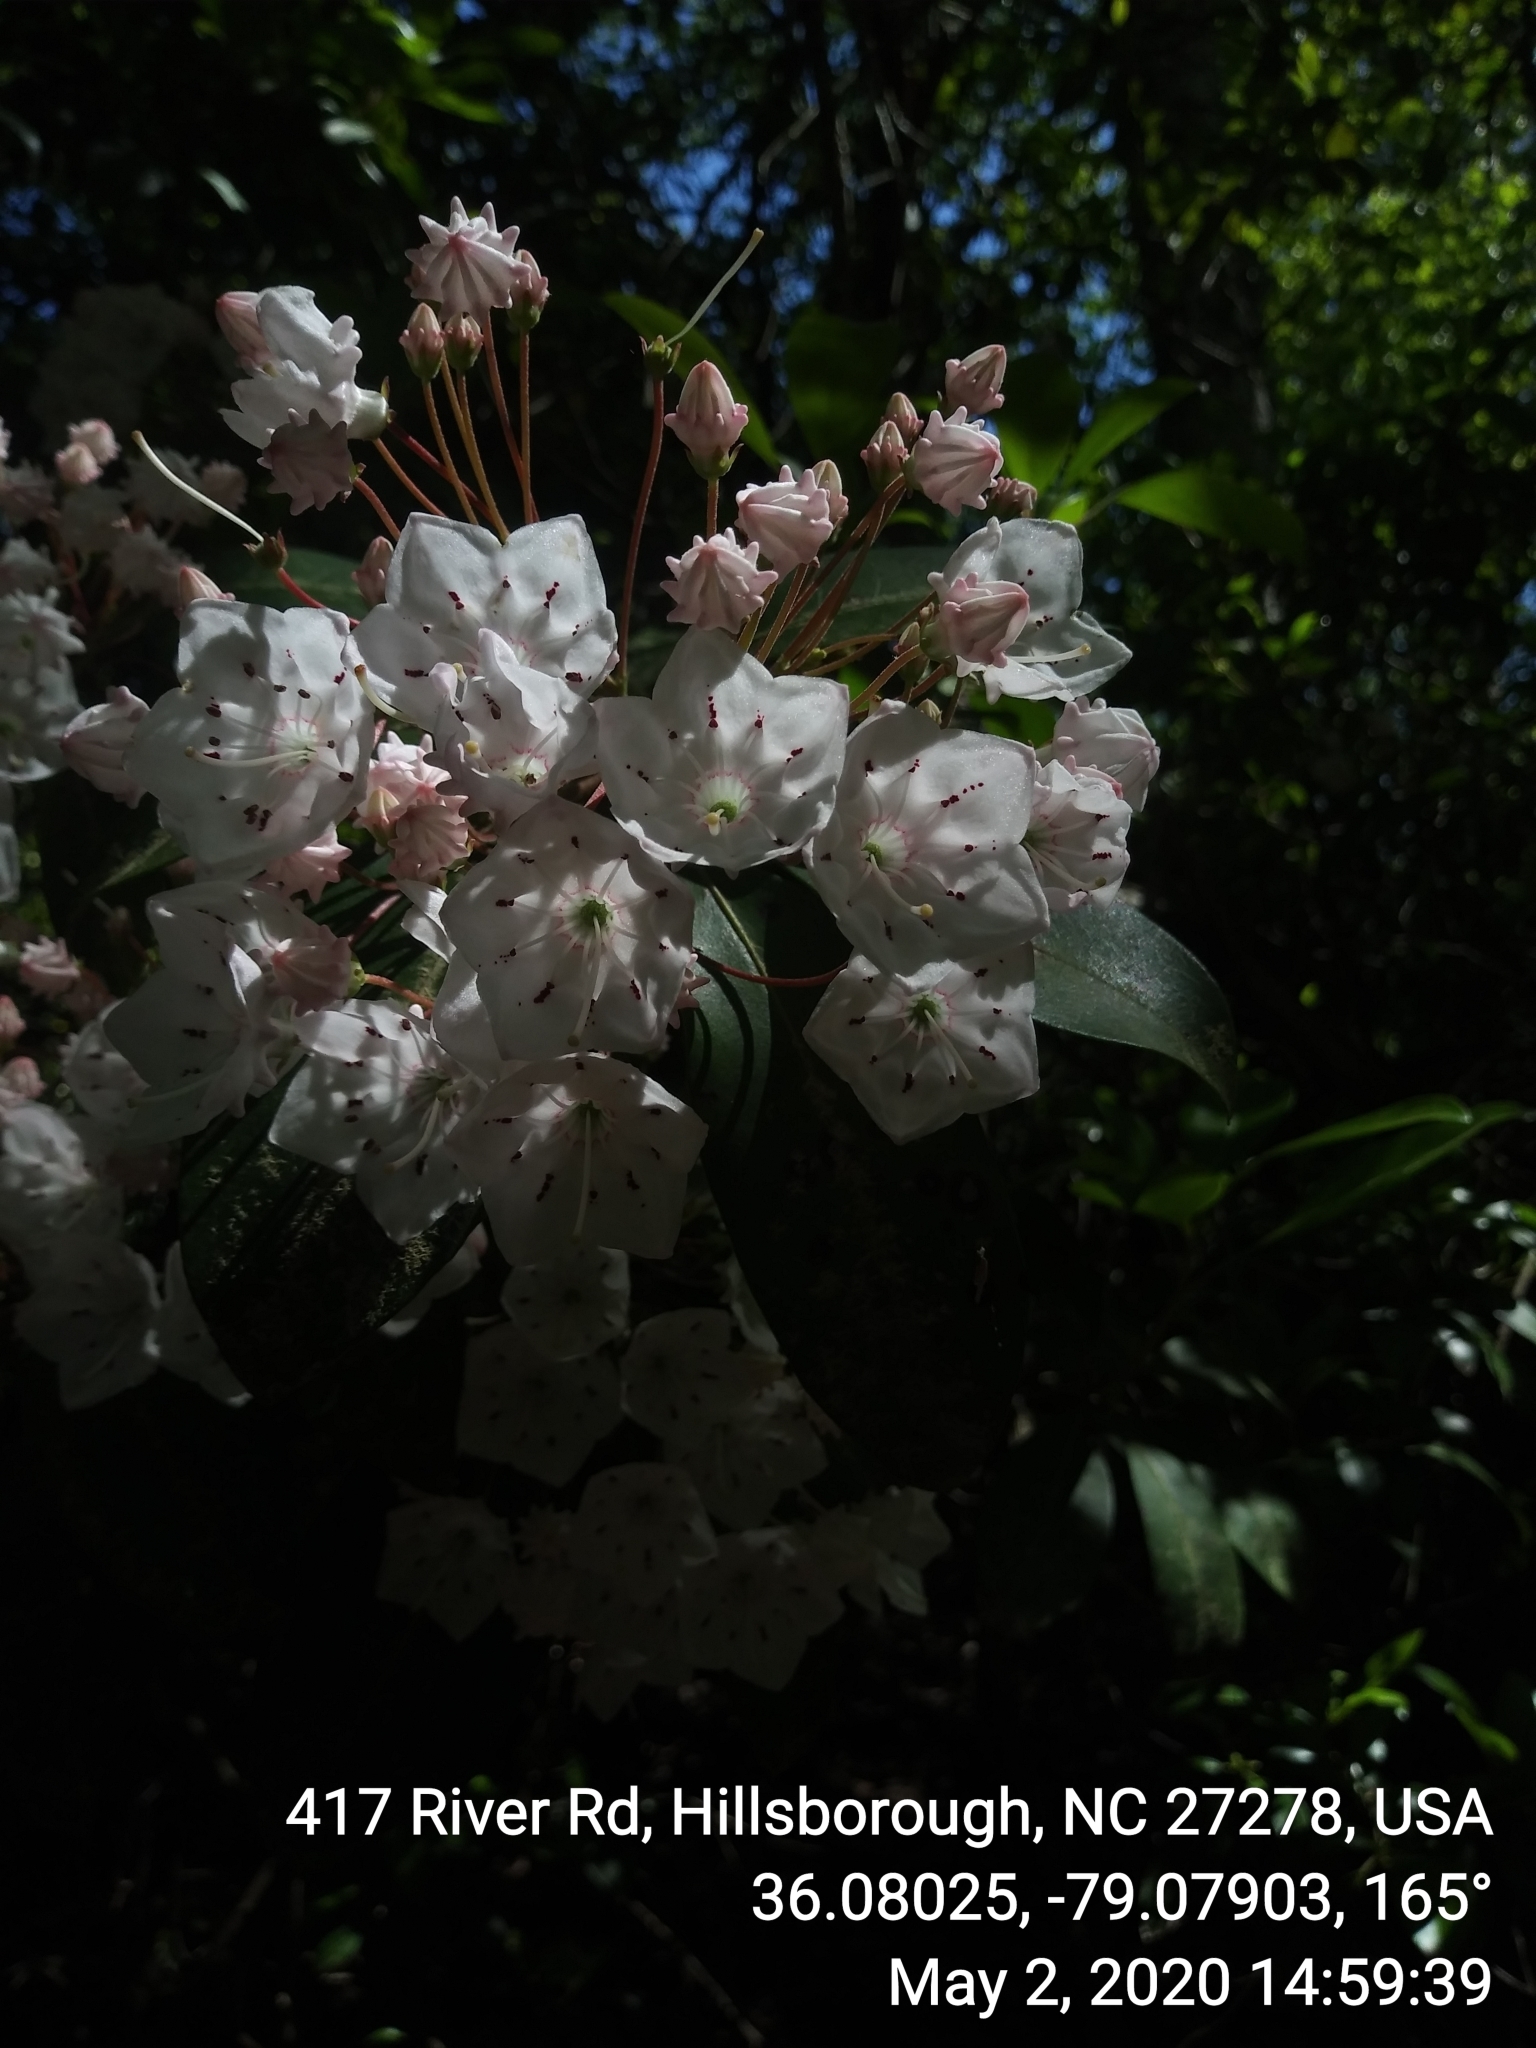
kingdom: Plantae
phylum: Tracheophyta
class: Magnoliopsida
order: Ericales
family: Ericaceae
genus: Kalmia
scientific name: Kalmia latifolia
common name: Mountain-laurel
